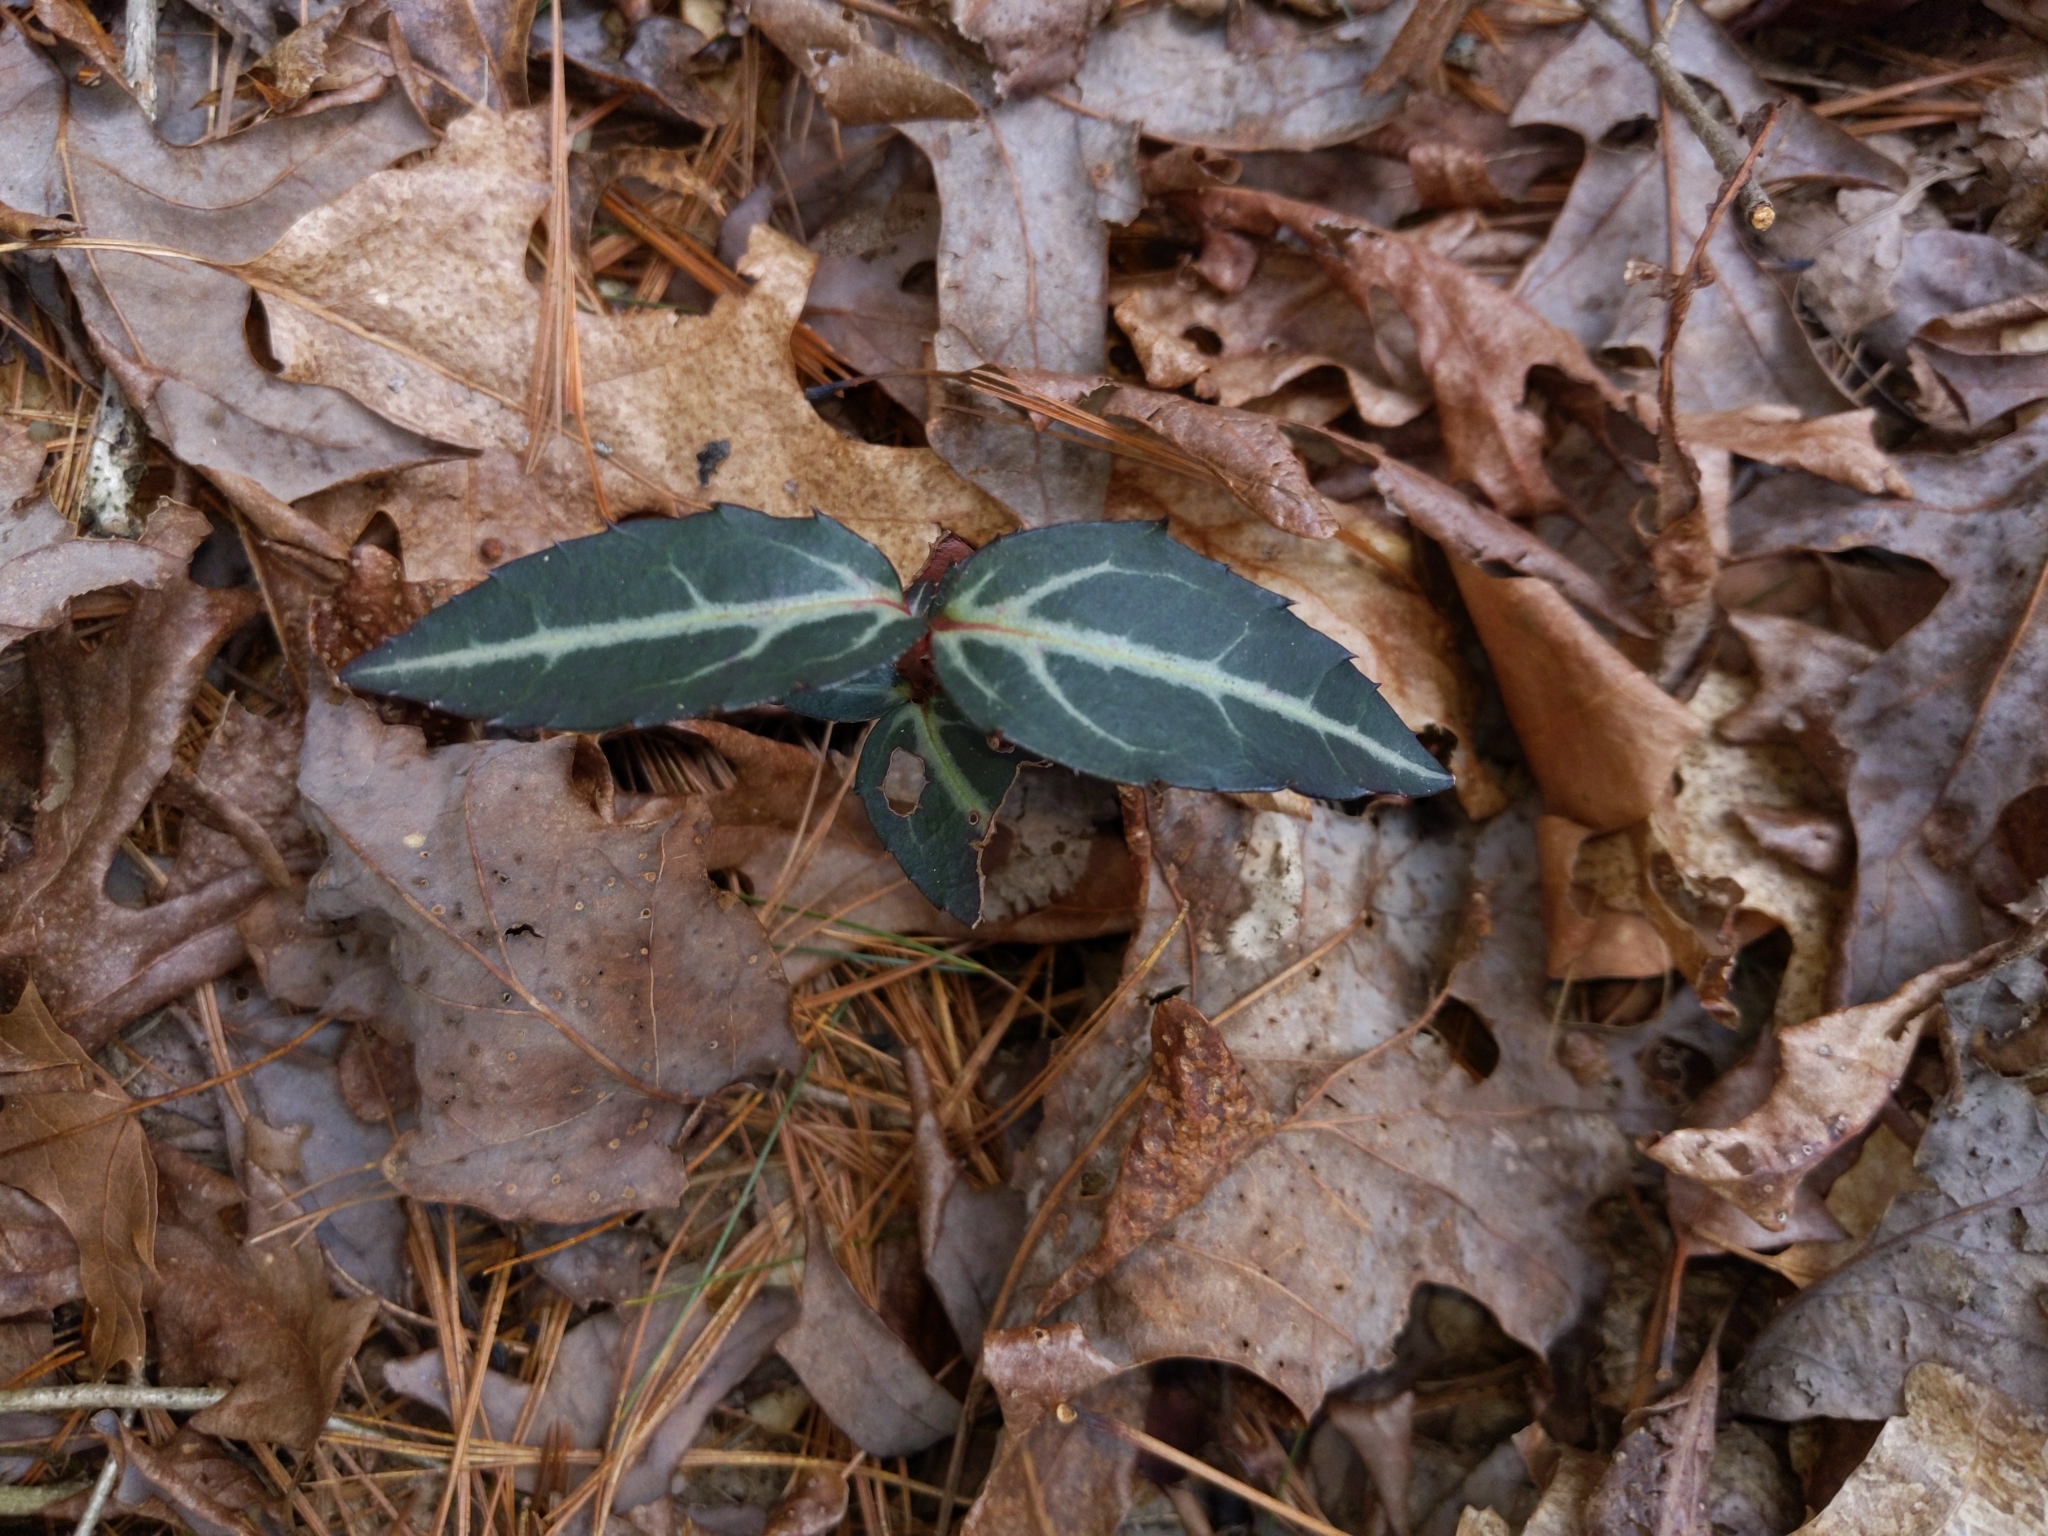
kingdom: Plantae
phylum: Tracheophyta
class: Magnoliopsida
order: Ericales
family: Ericaceae
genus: Chimaphila
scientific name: Chimaphila maculata
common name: Spotted pipsissewa
